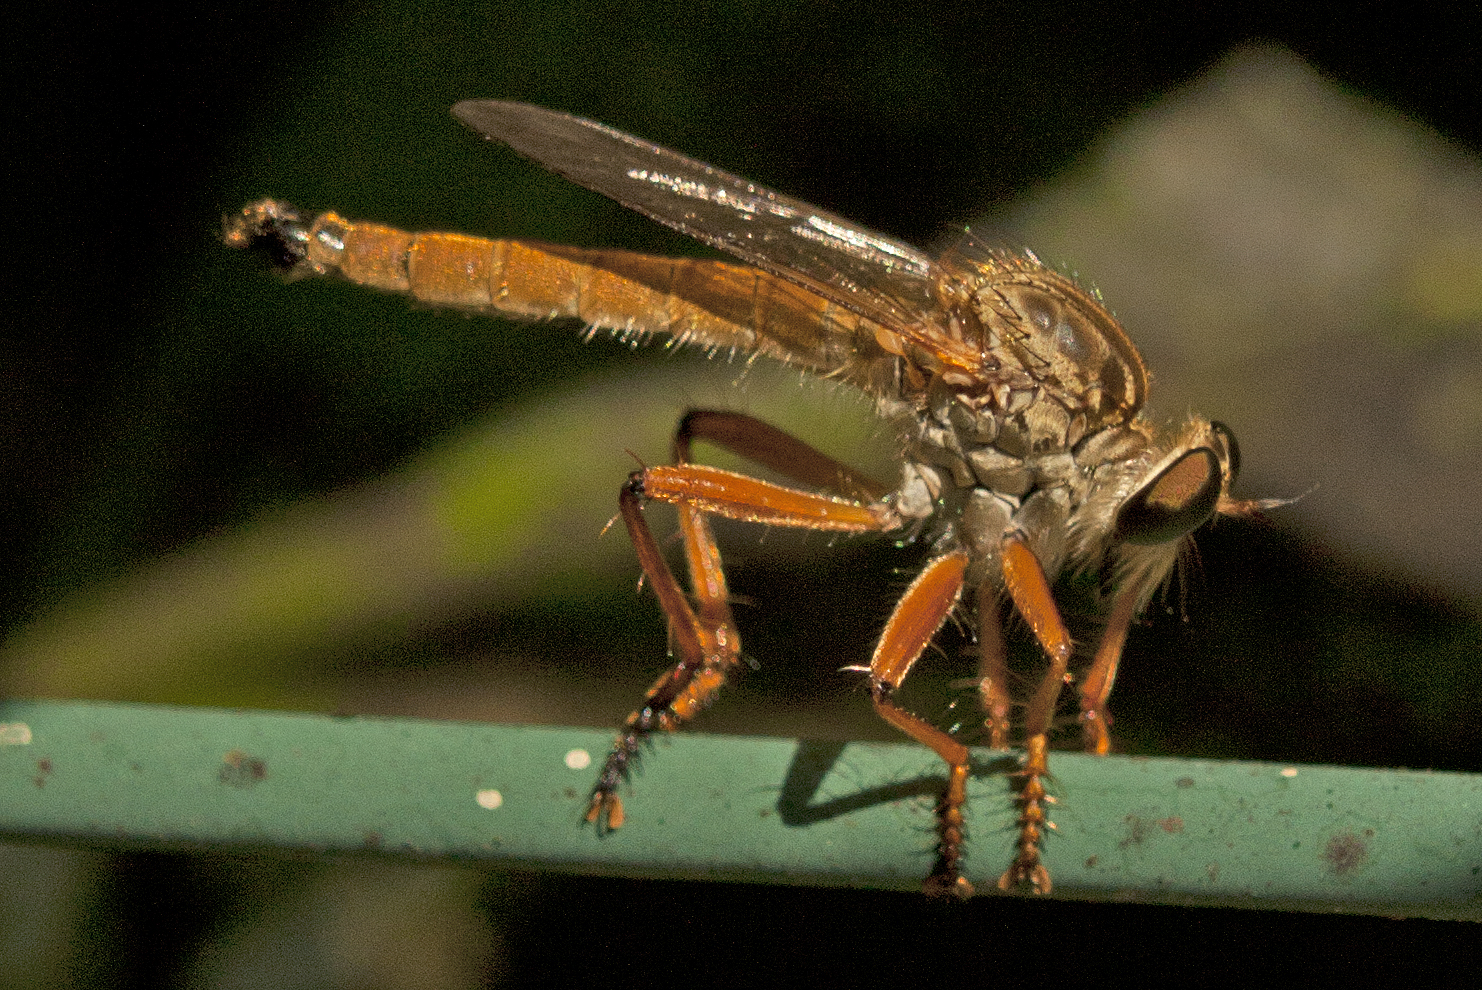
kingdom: Animalia
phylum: Arthropoda
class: Insecta
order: Diptera
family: Asilidae
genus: Zosteria
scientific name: Zosteria fulvipubescens
